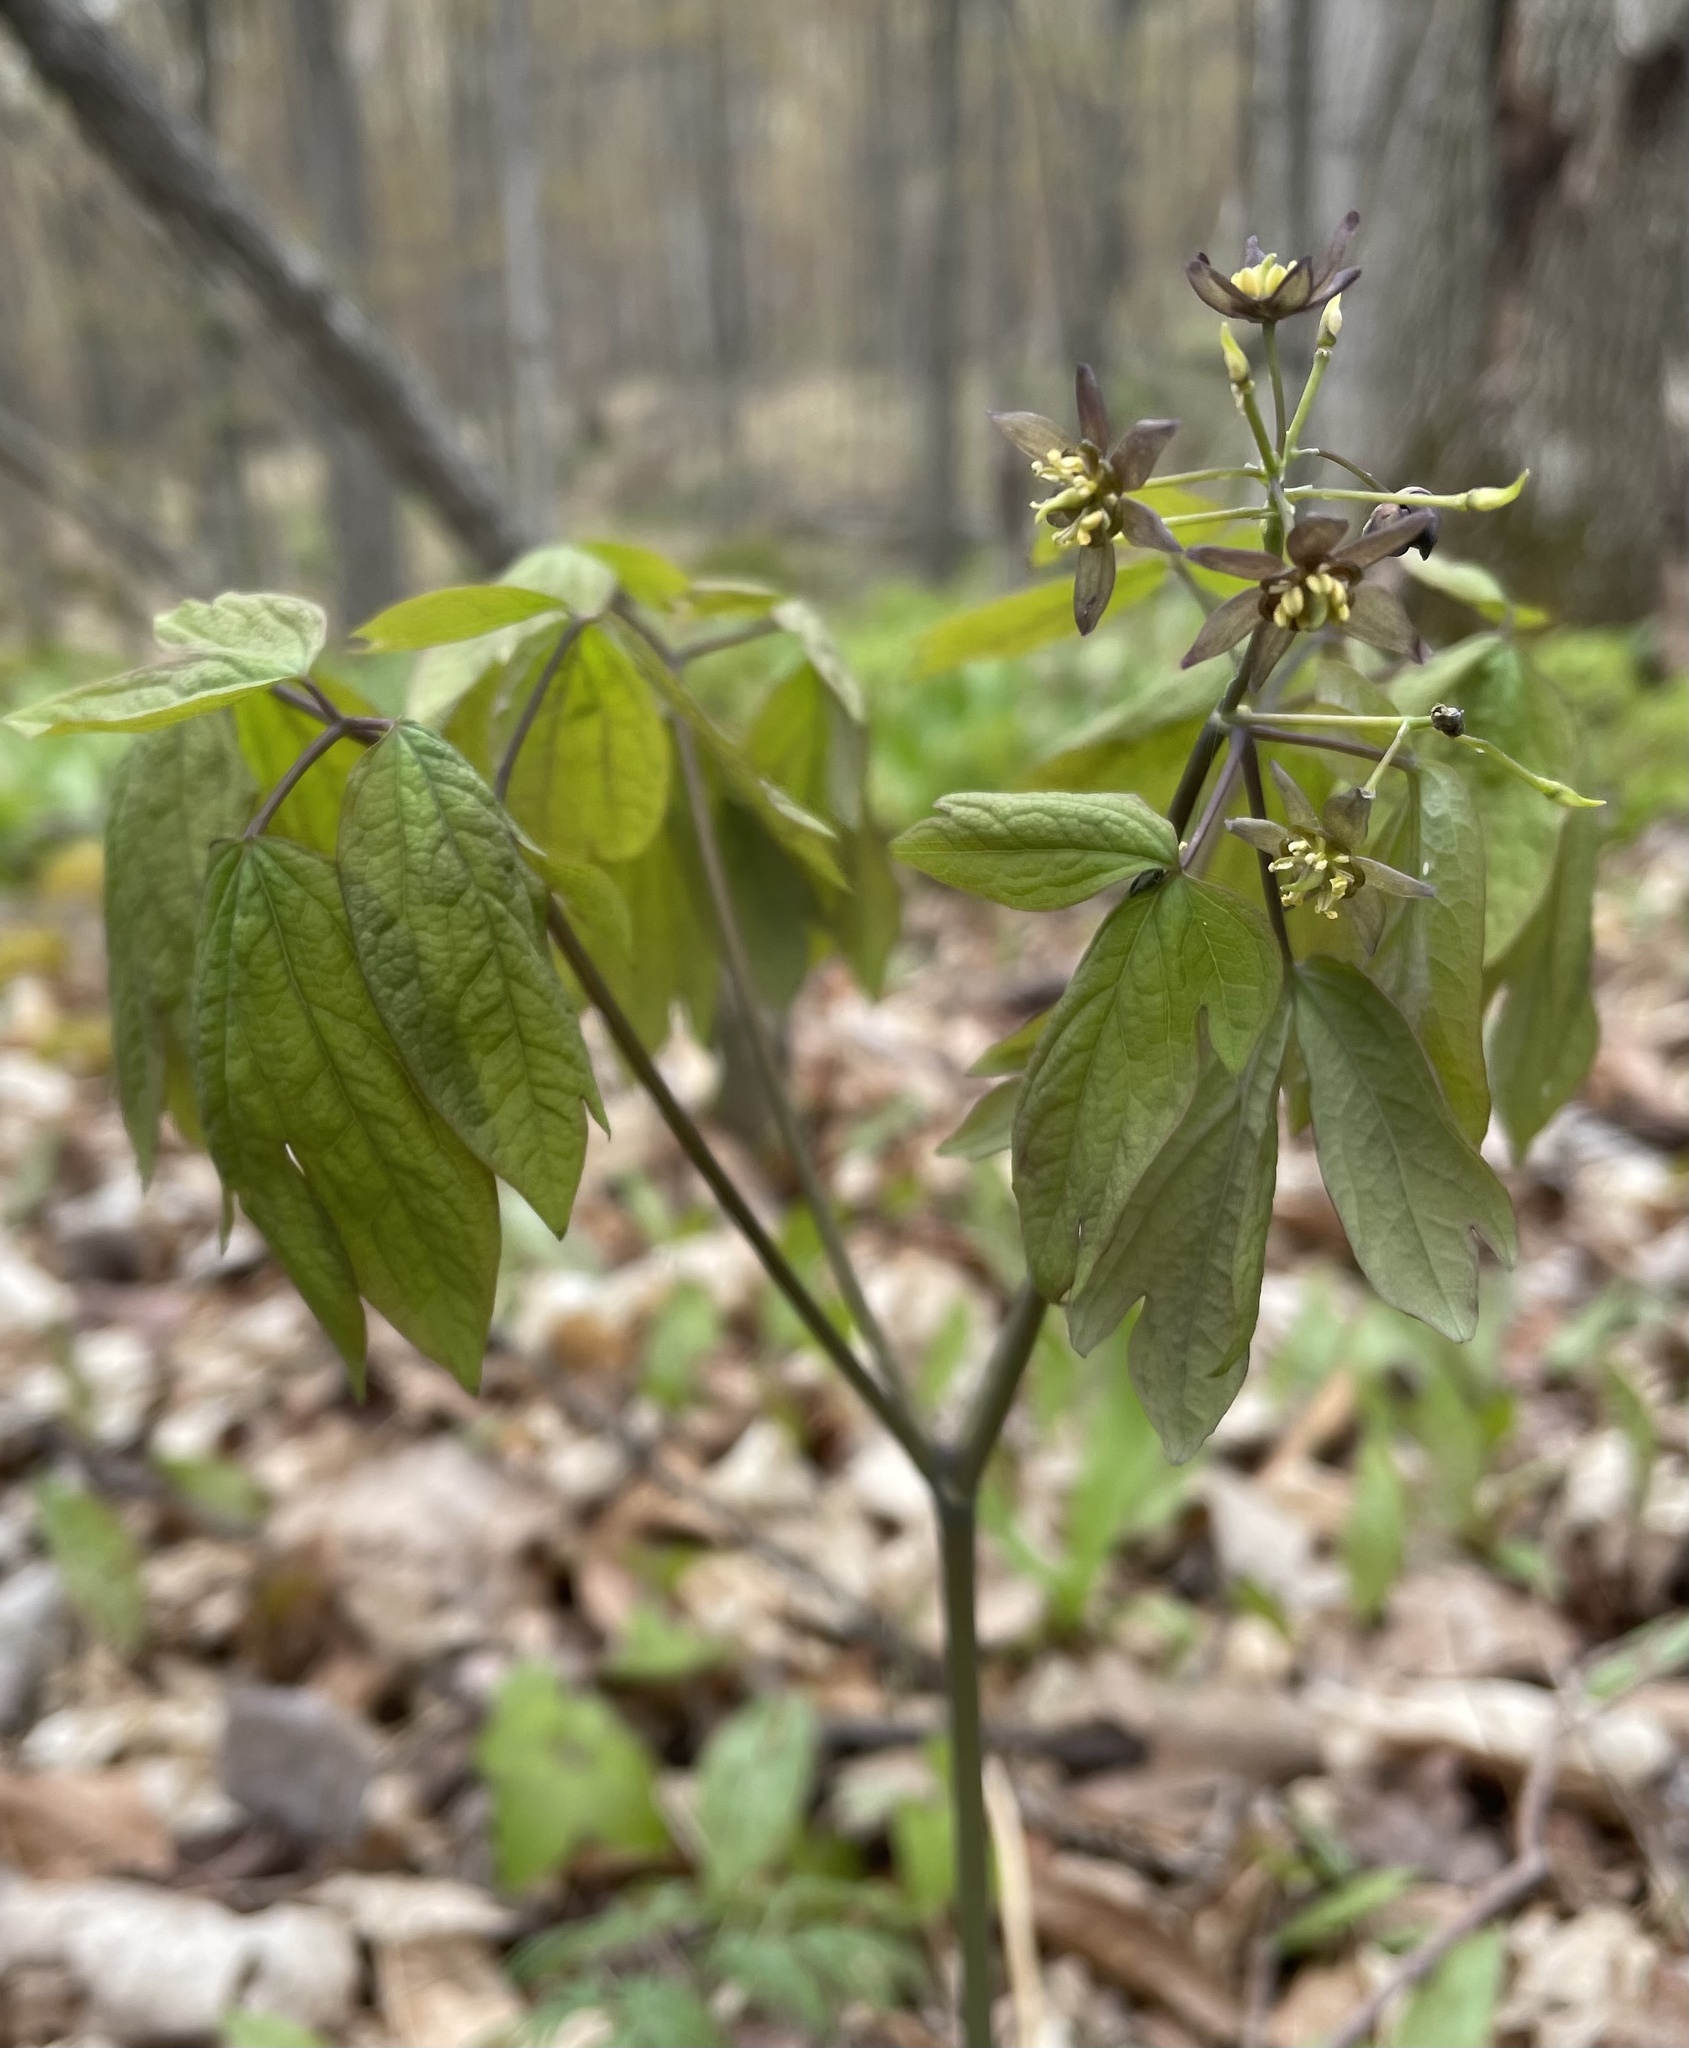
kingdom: Plantae
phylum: Tracheophyta
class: Magnoliopsida
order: Ranunculales
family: Berberidaceae
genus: Caulophyllum
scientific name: Caulophyllum giganteum
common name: Blue cohosh
